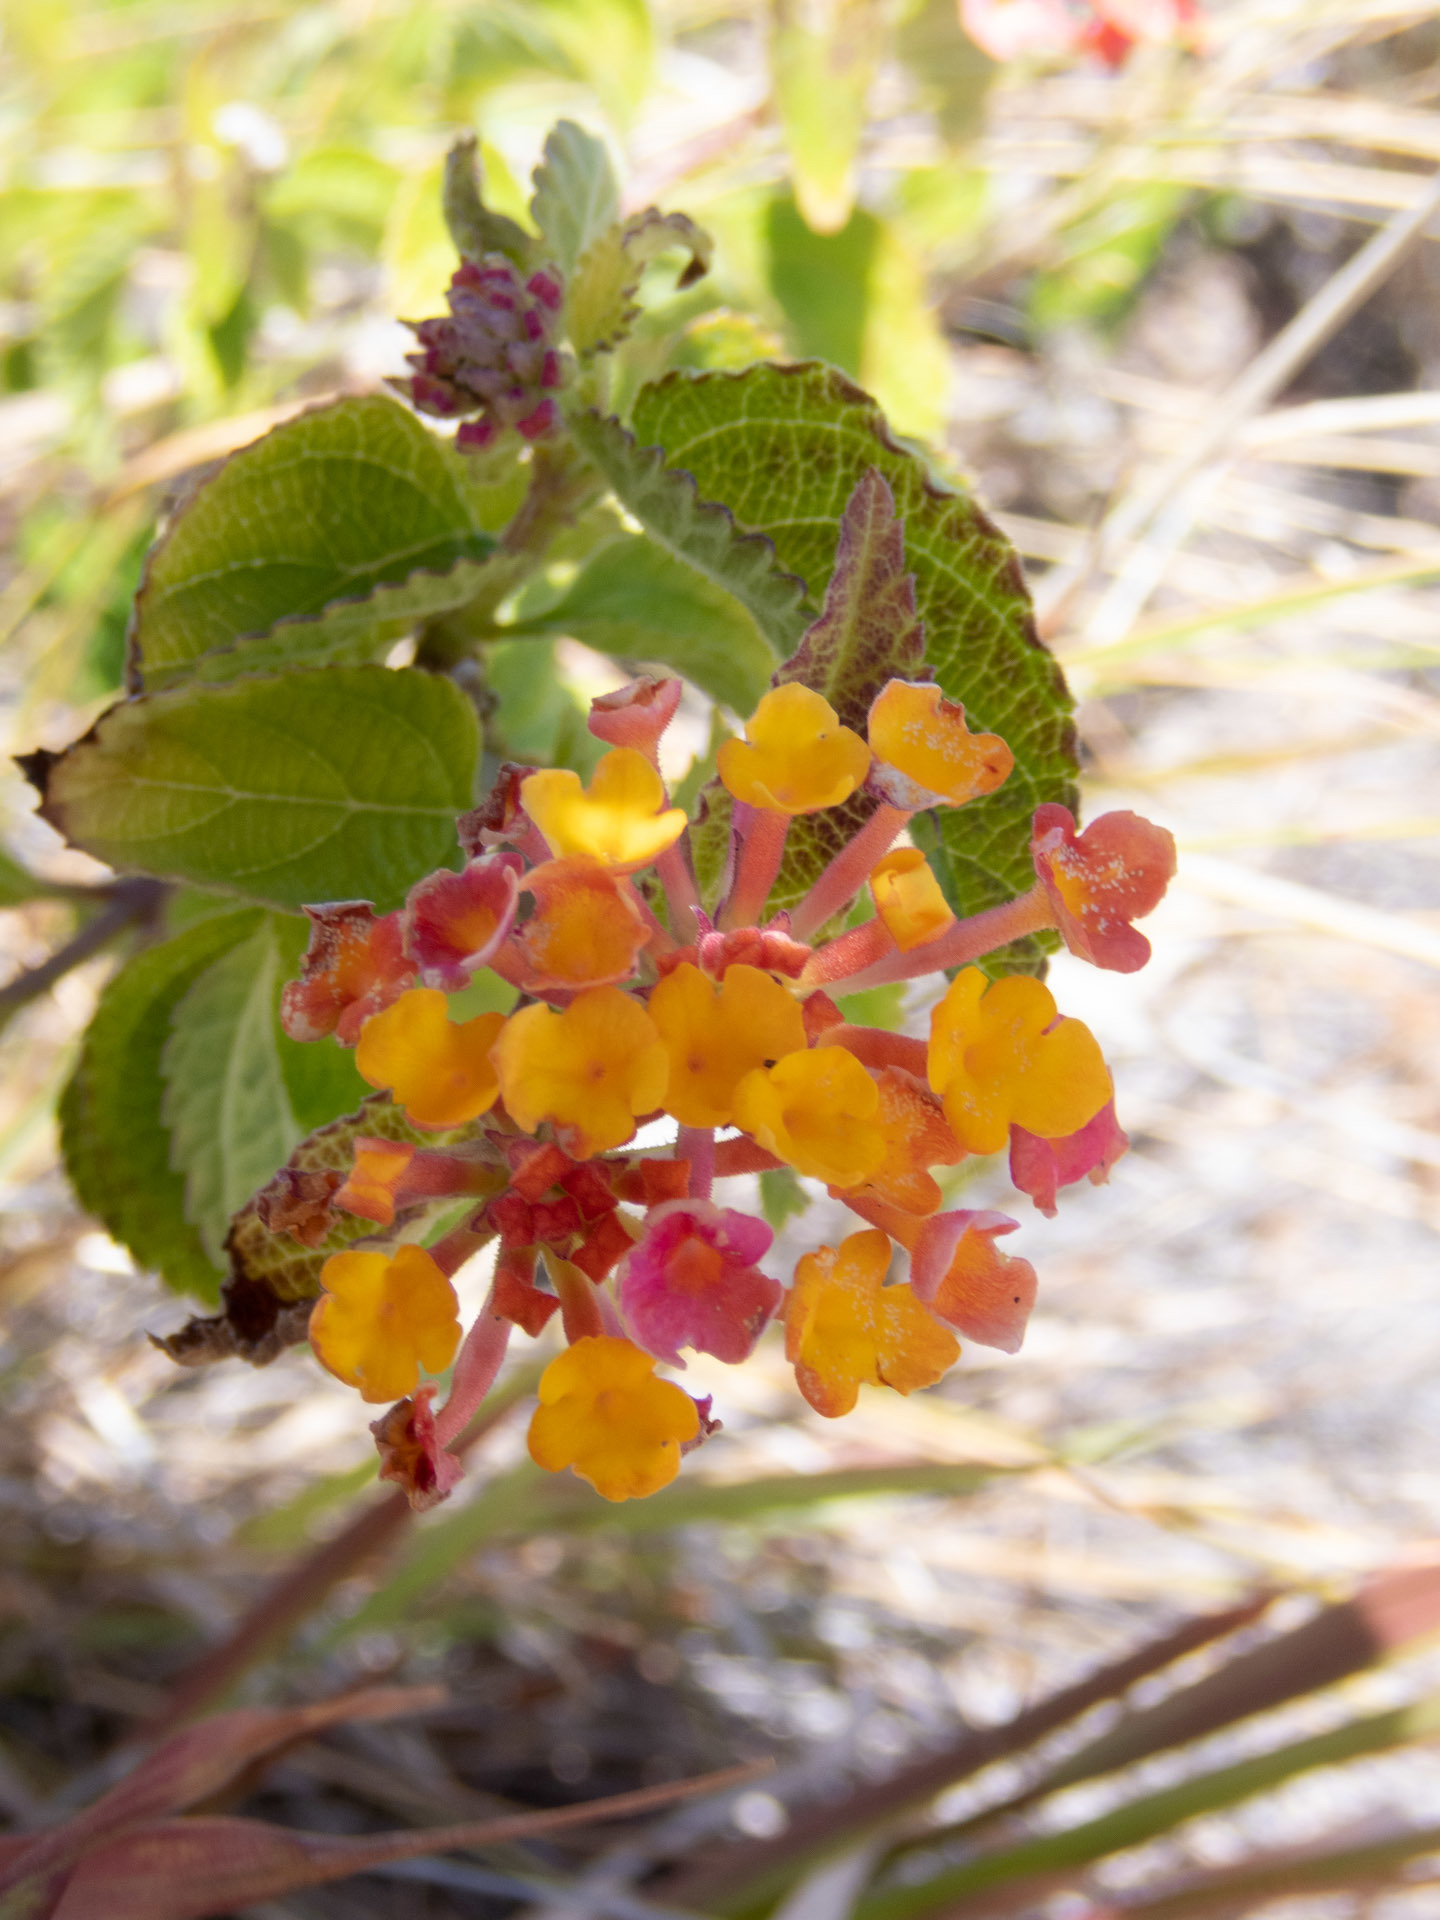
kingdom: Plantae
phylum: Tracheophyta
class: Magnoliopsida
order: Lamiales
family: Verbenaceae
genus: Lantana
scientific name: Lantana camara
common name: Lantana
